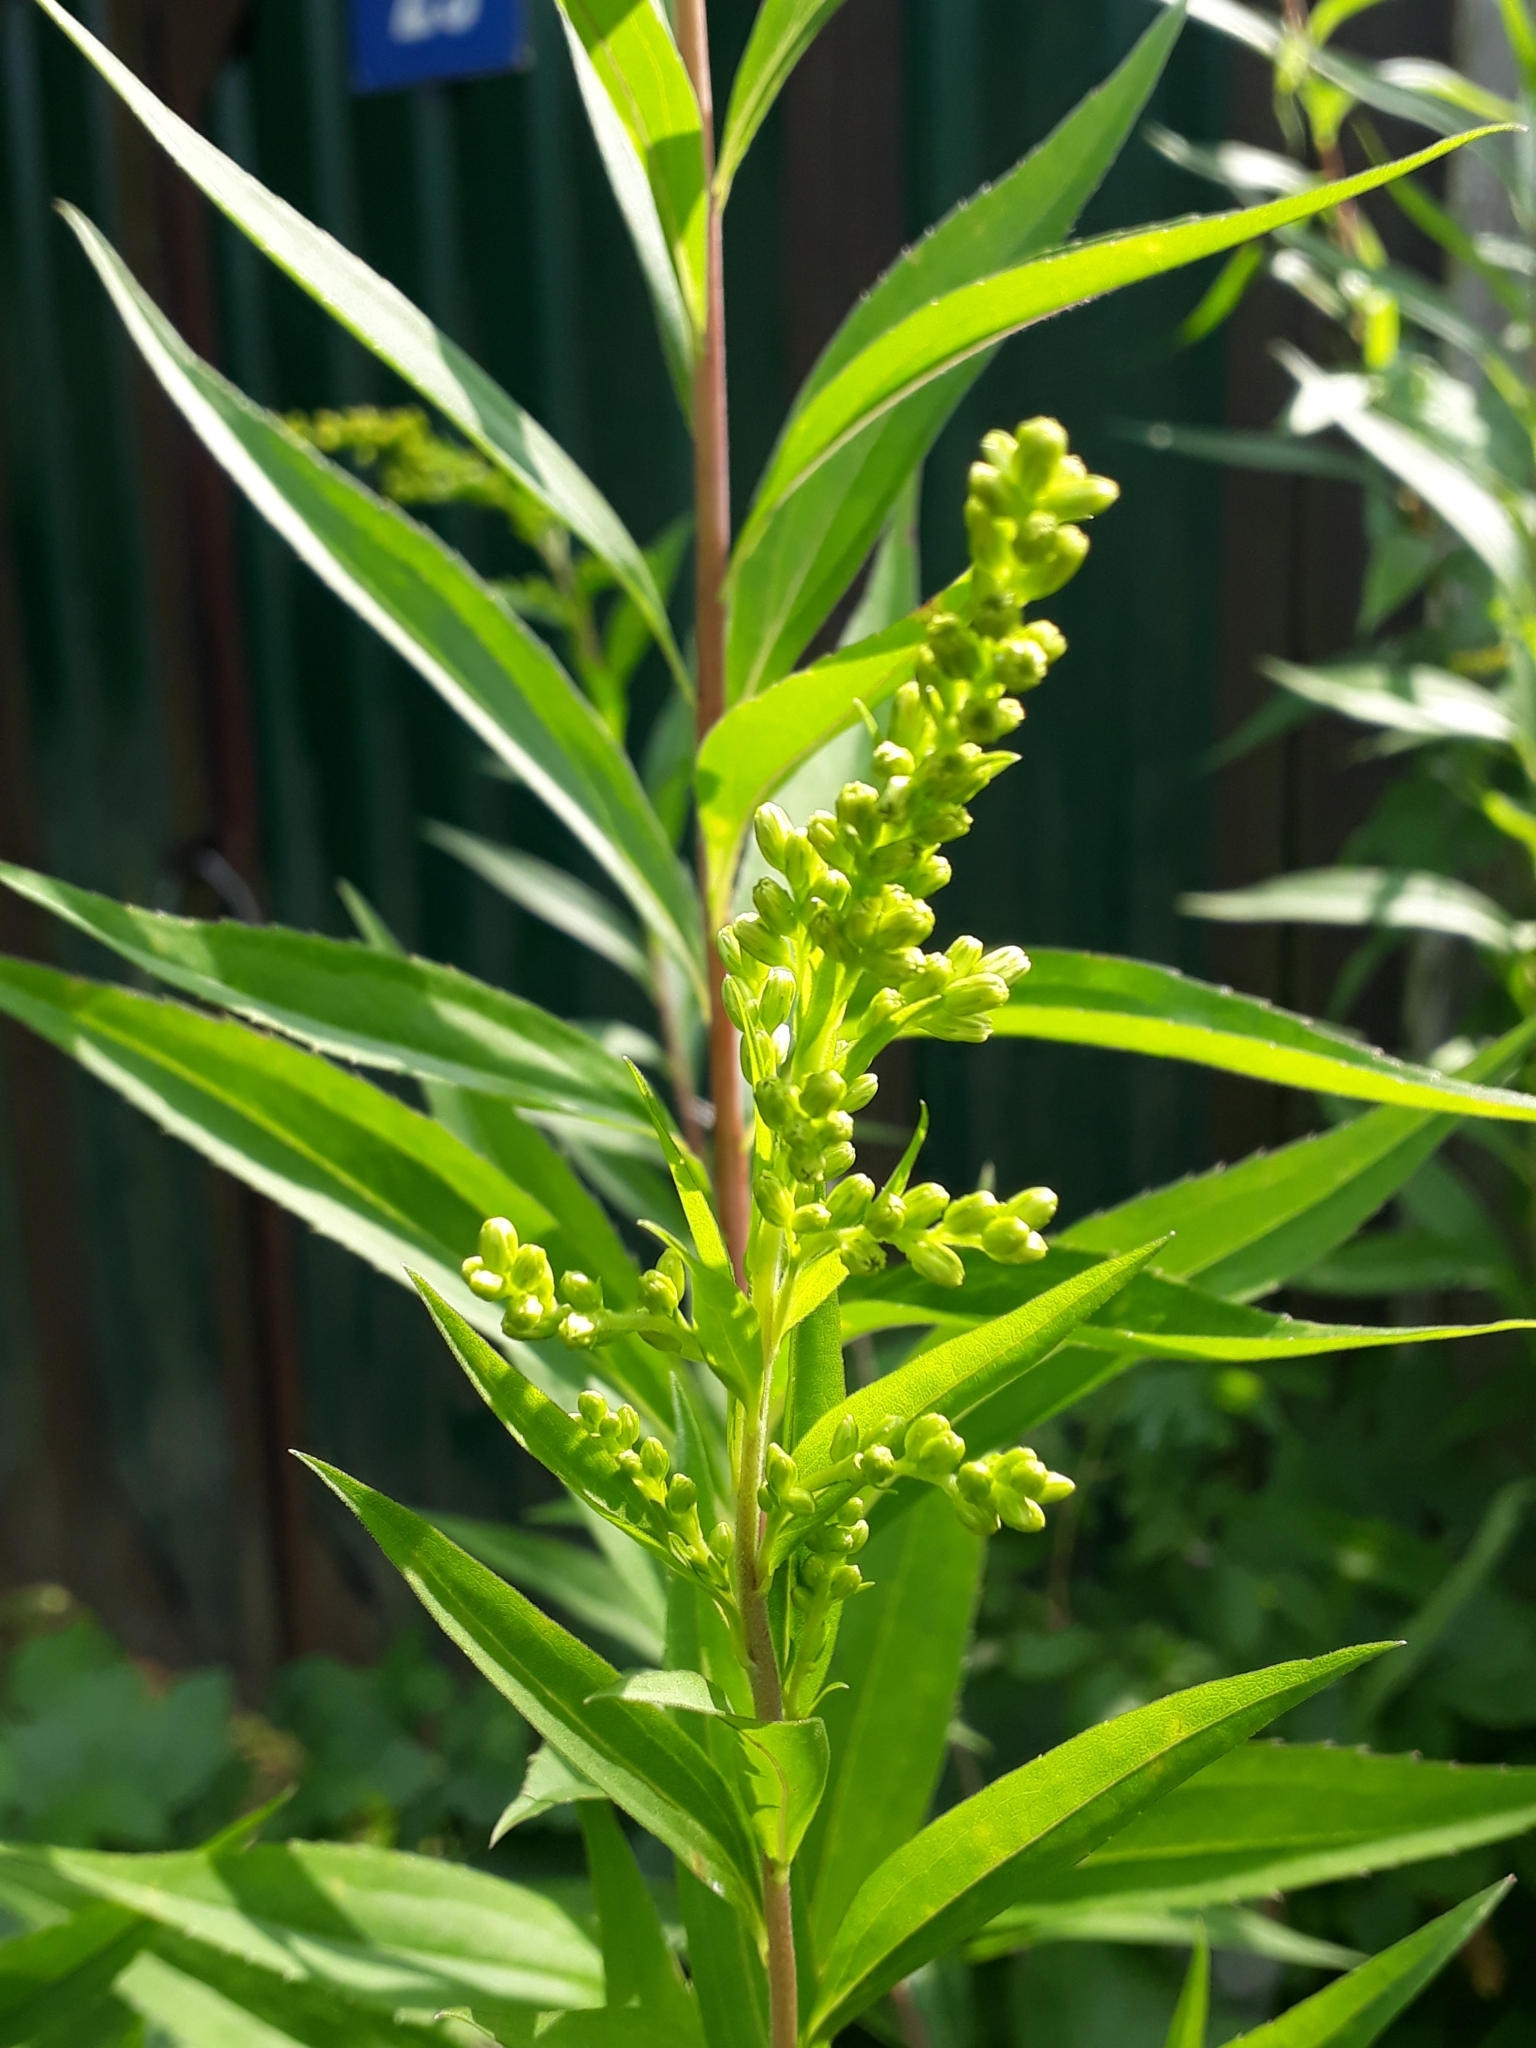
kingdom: Plantae
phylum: Tracheophyta
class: Magnoliopsida
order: Asterales
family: Asteraceae
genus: Solidago
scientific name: Solidago gigantea
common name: Giant goldenrod
